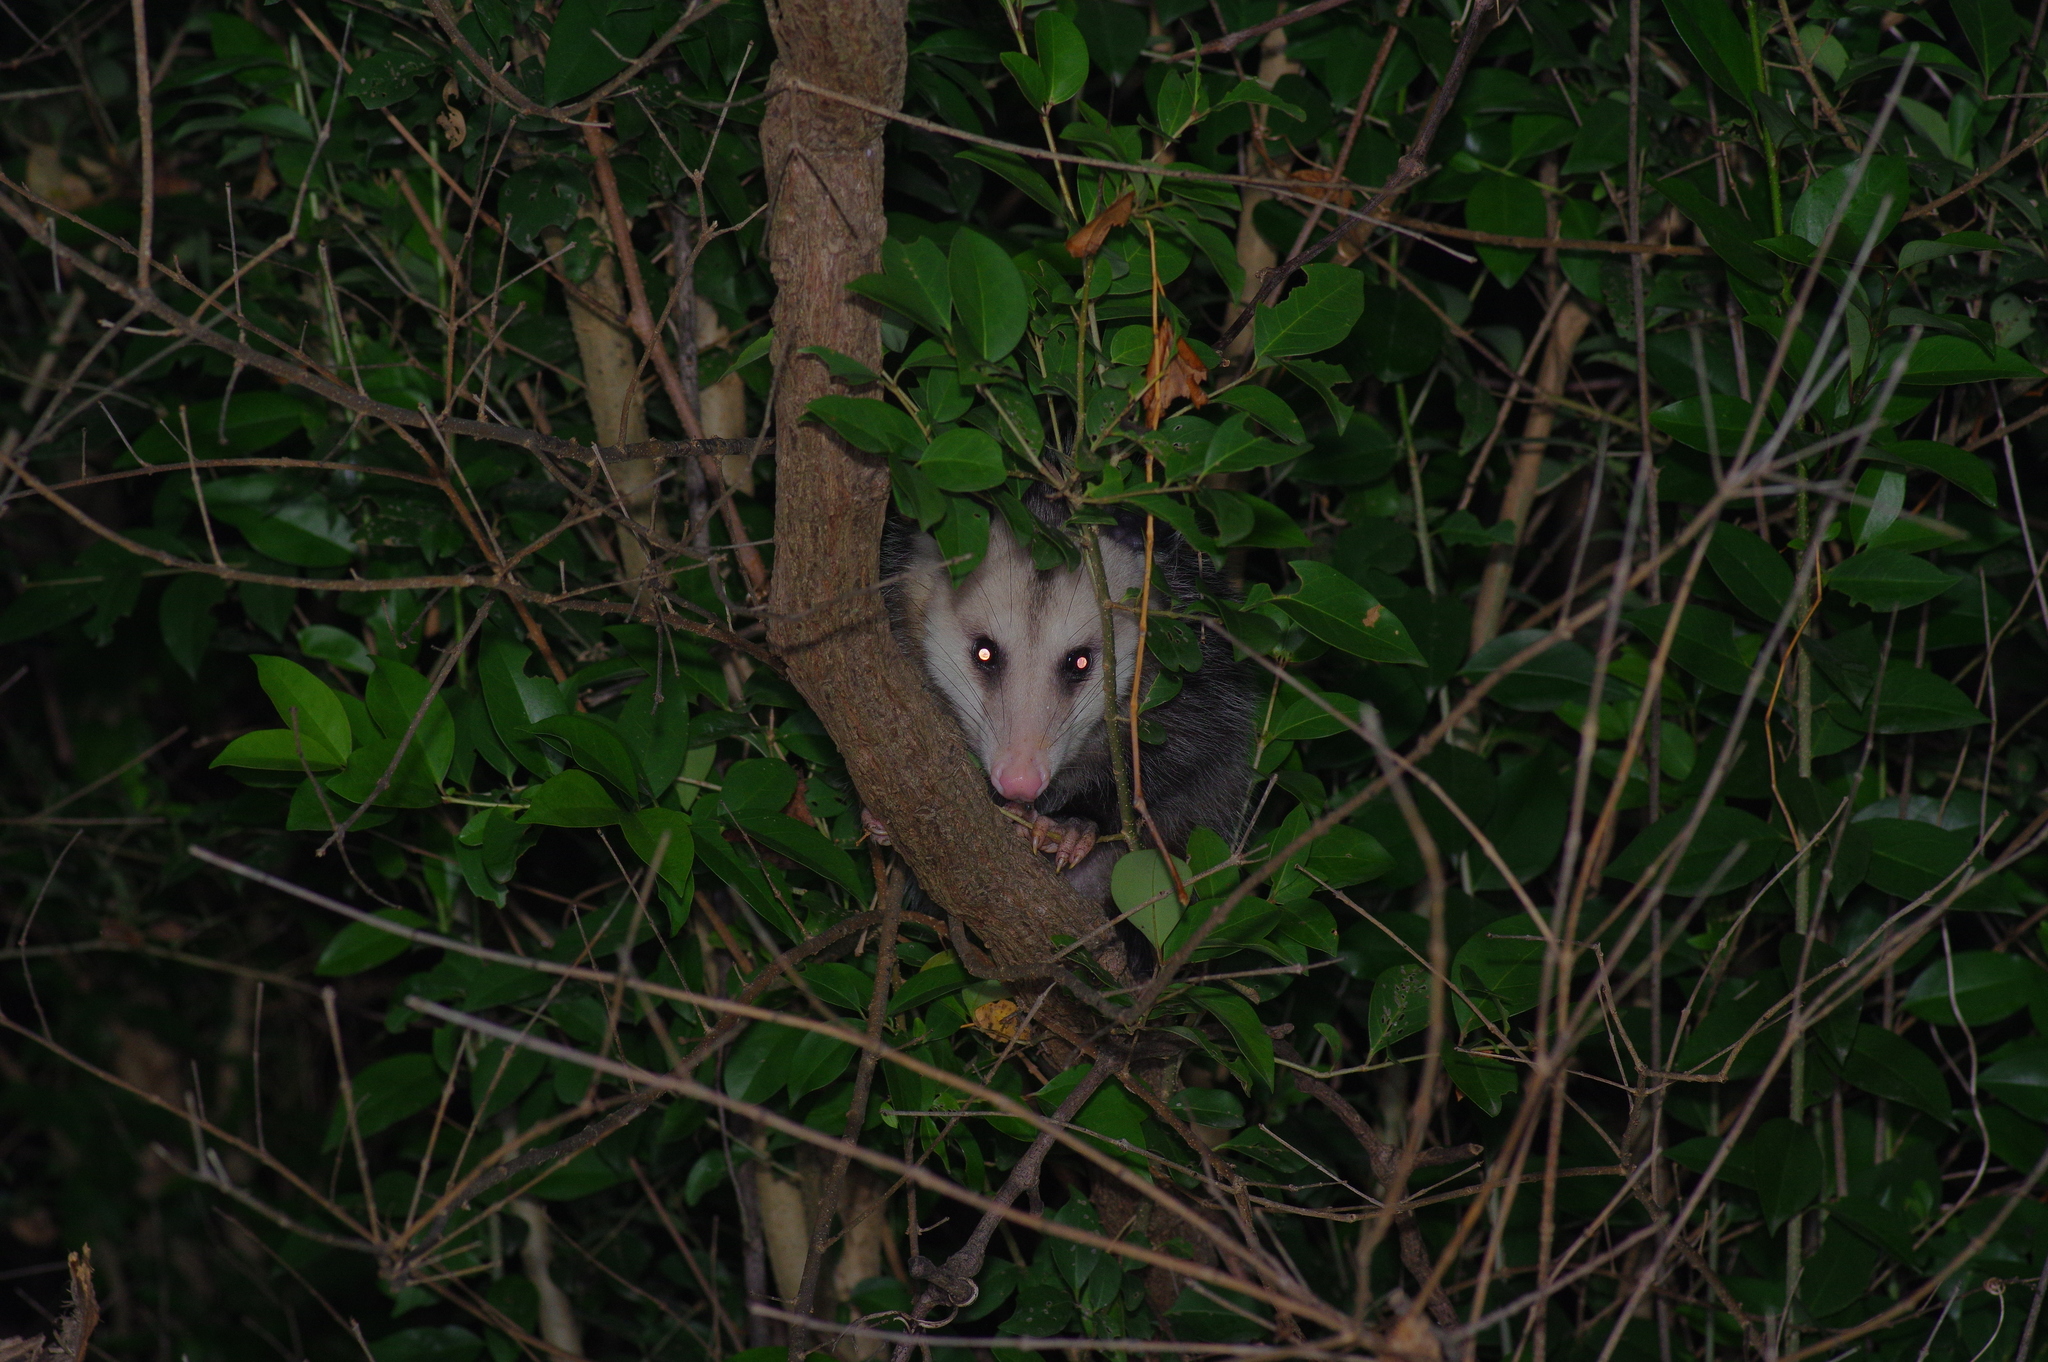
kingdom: Animalia
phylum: Chordata
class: Mammalia
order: Didelphimorphia
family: Didelphidae
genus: Didelphis
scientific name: Didelphis virginiana
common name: Virginia opossum
